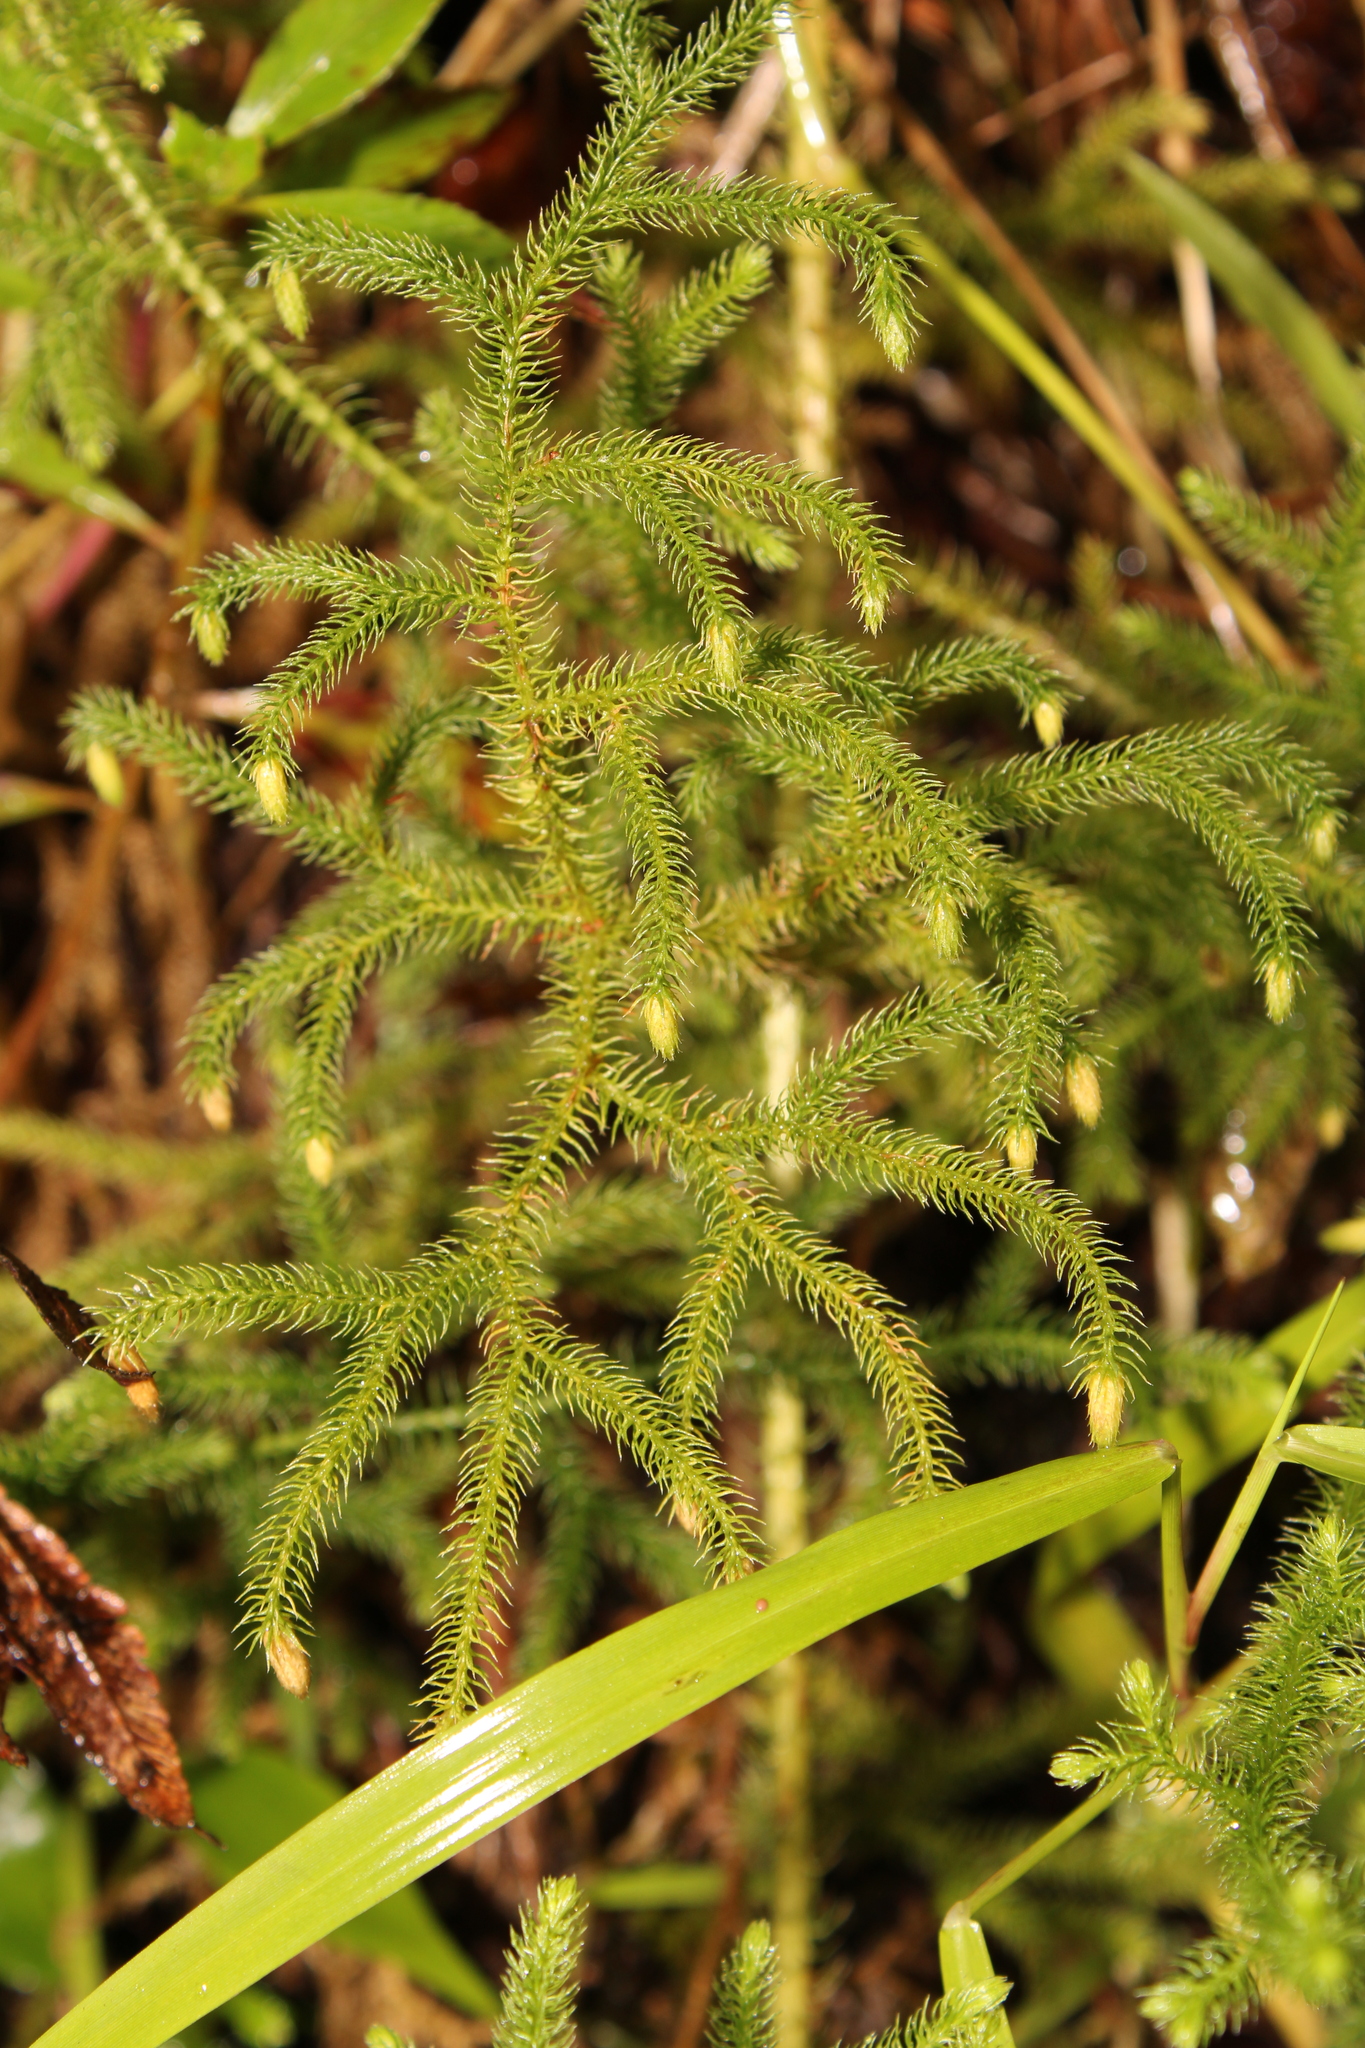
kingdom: Plantae
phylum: Tracheophyta
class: Lycopodiopsida
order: Lycopodiales
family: Lycopodiaceae
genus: Palhinhaea
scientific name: Palhinhaea curvata
